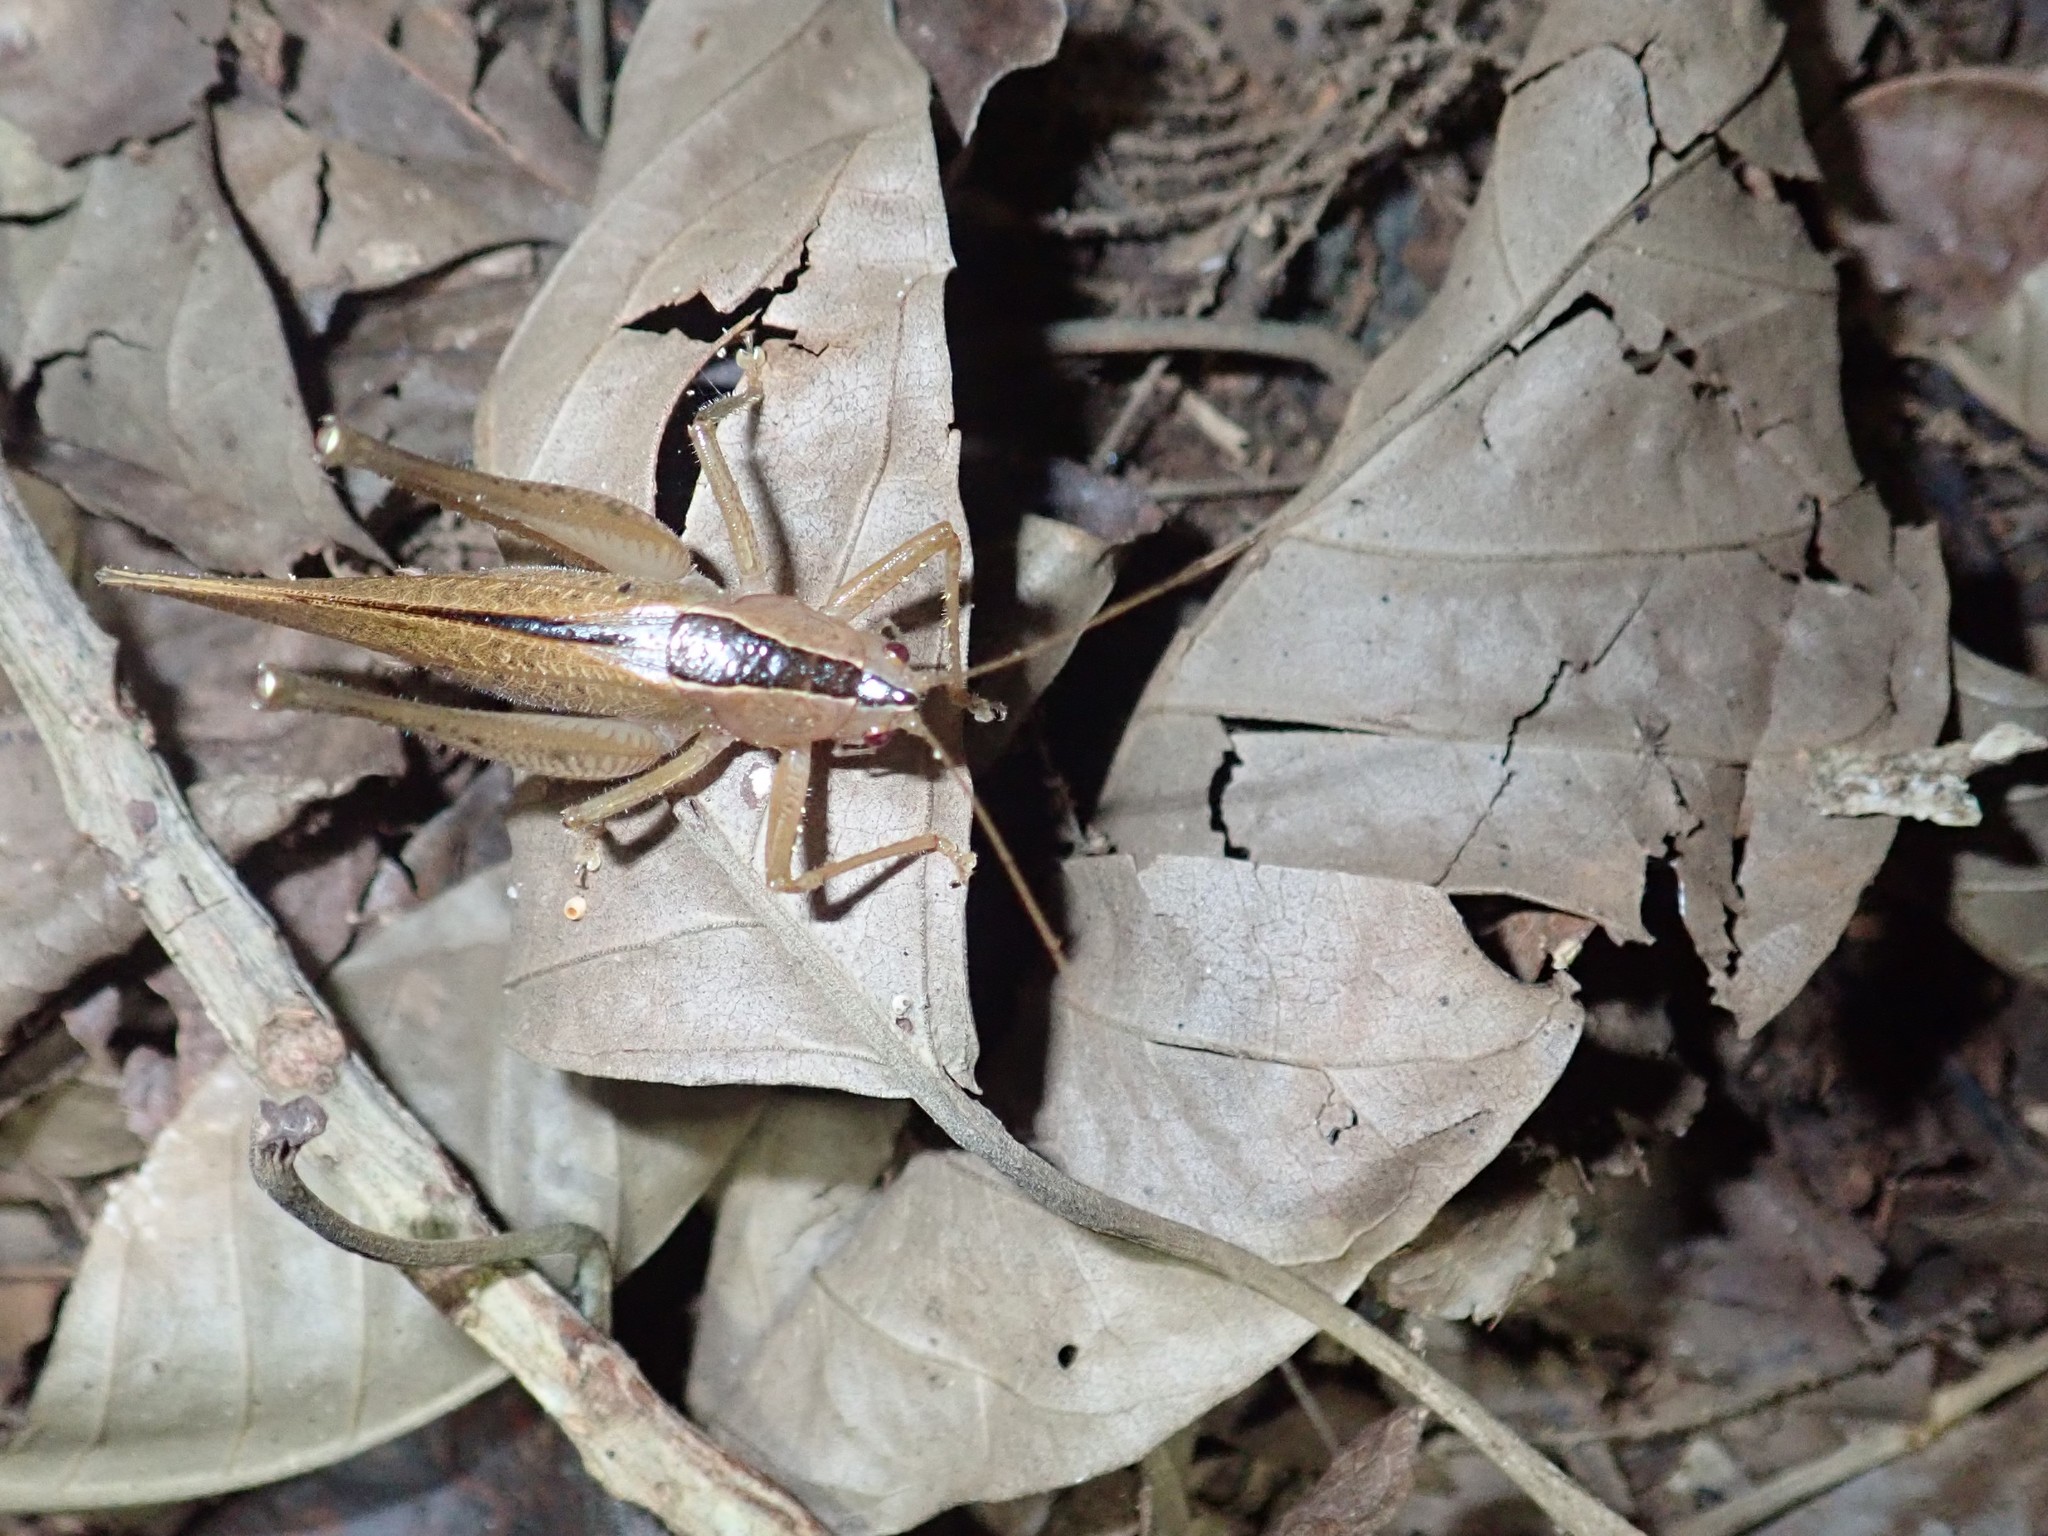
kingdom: Animalia
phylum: Arthropoda
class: Insecta
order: Orthoptera
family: Tettigoniidae
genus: Subria
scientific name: Subria crassicerca
